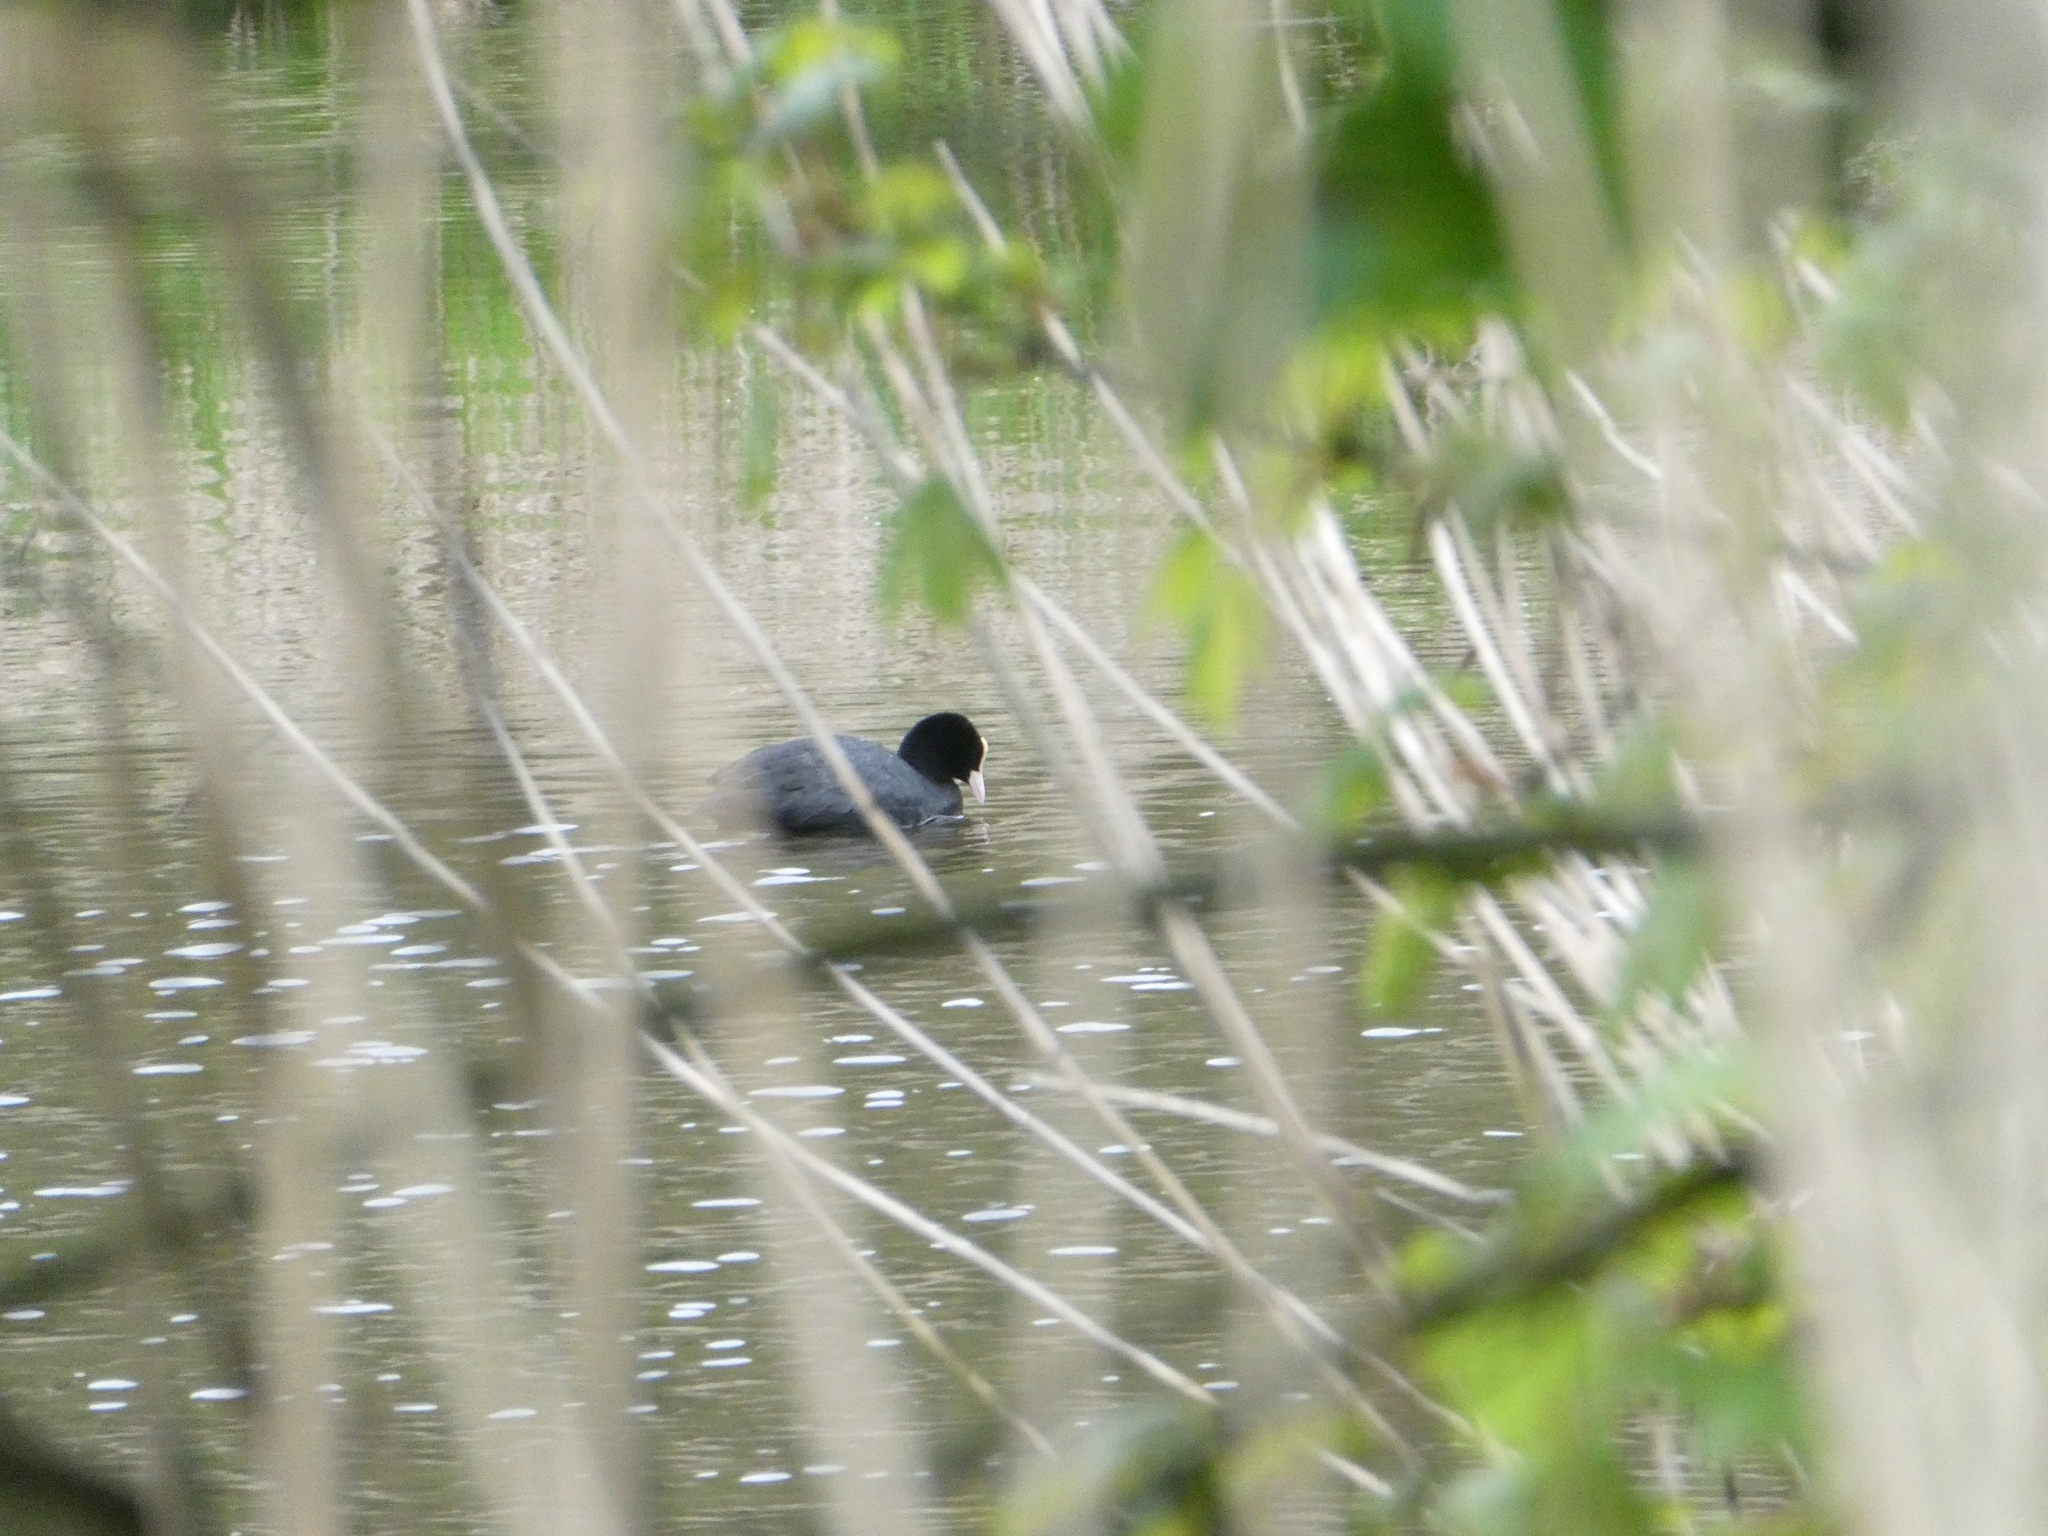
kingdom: Animalia
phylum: Chordata
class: Aves
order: Gruiformes
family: Rallidae
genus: Fulica
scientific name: Fulica atra
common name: Eurasian coot
